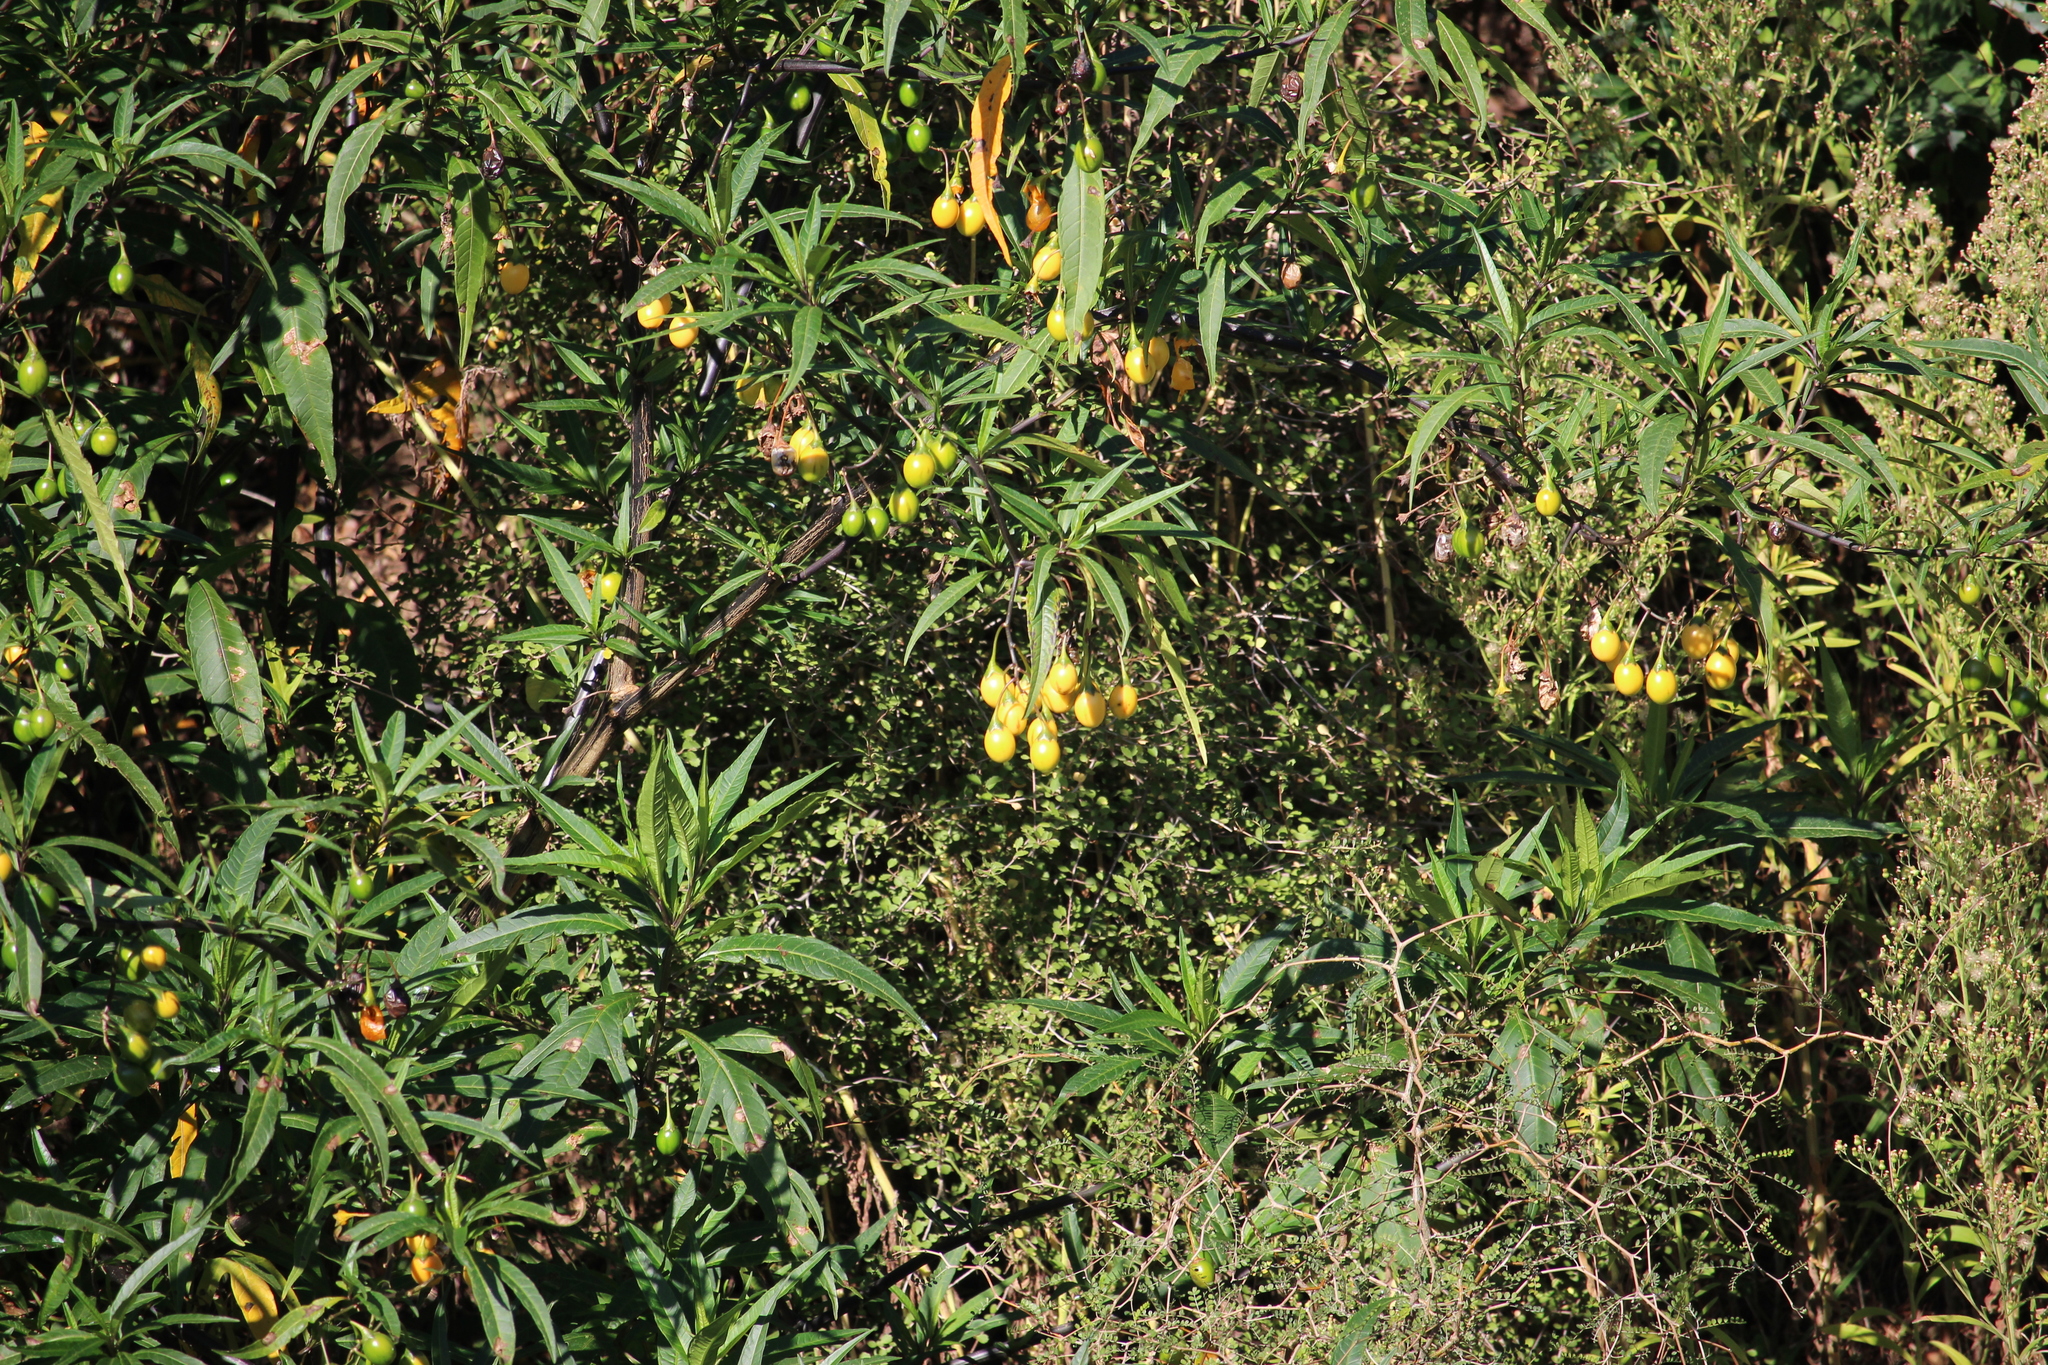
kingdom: Plantae
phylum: Tracheophyta
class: Magnoliopsida
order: Solanales
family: Solanaceae
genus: Solanum
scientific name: Solanum laciniatum
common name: Kangaroo-apple
